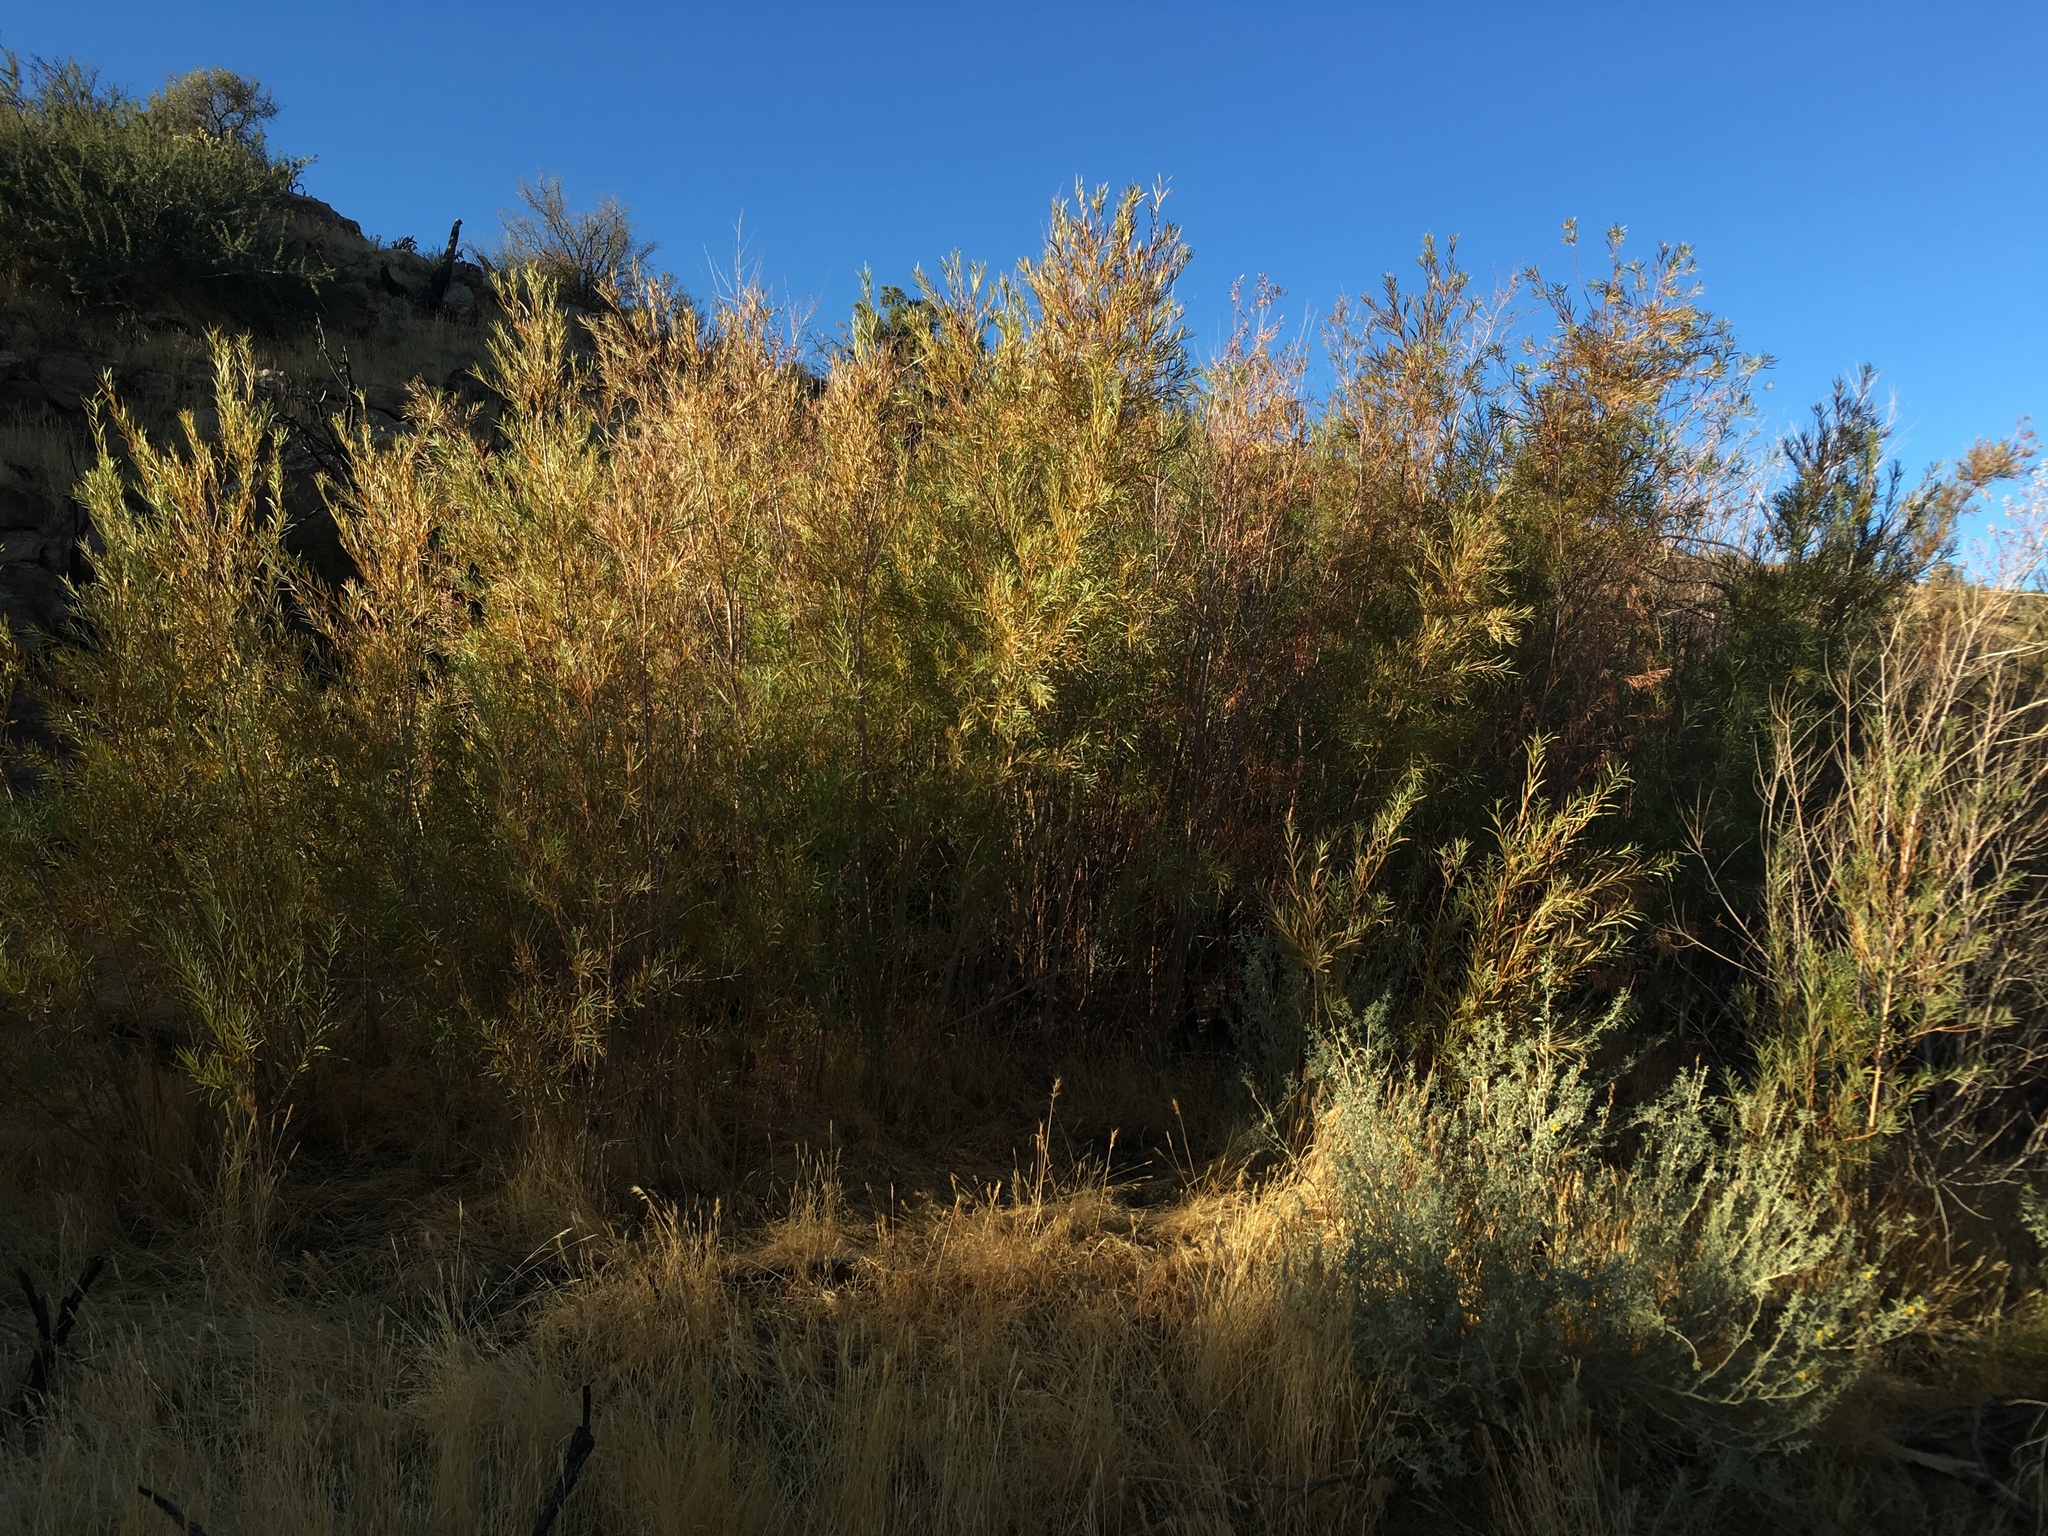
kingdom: Plantae
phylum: Tracheophyta
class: Magnoliopsida
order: Malpighiales
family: Salicaceae
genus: Salix
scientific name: Salix exigua
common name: Coyote willow
